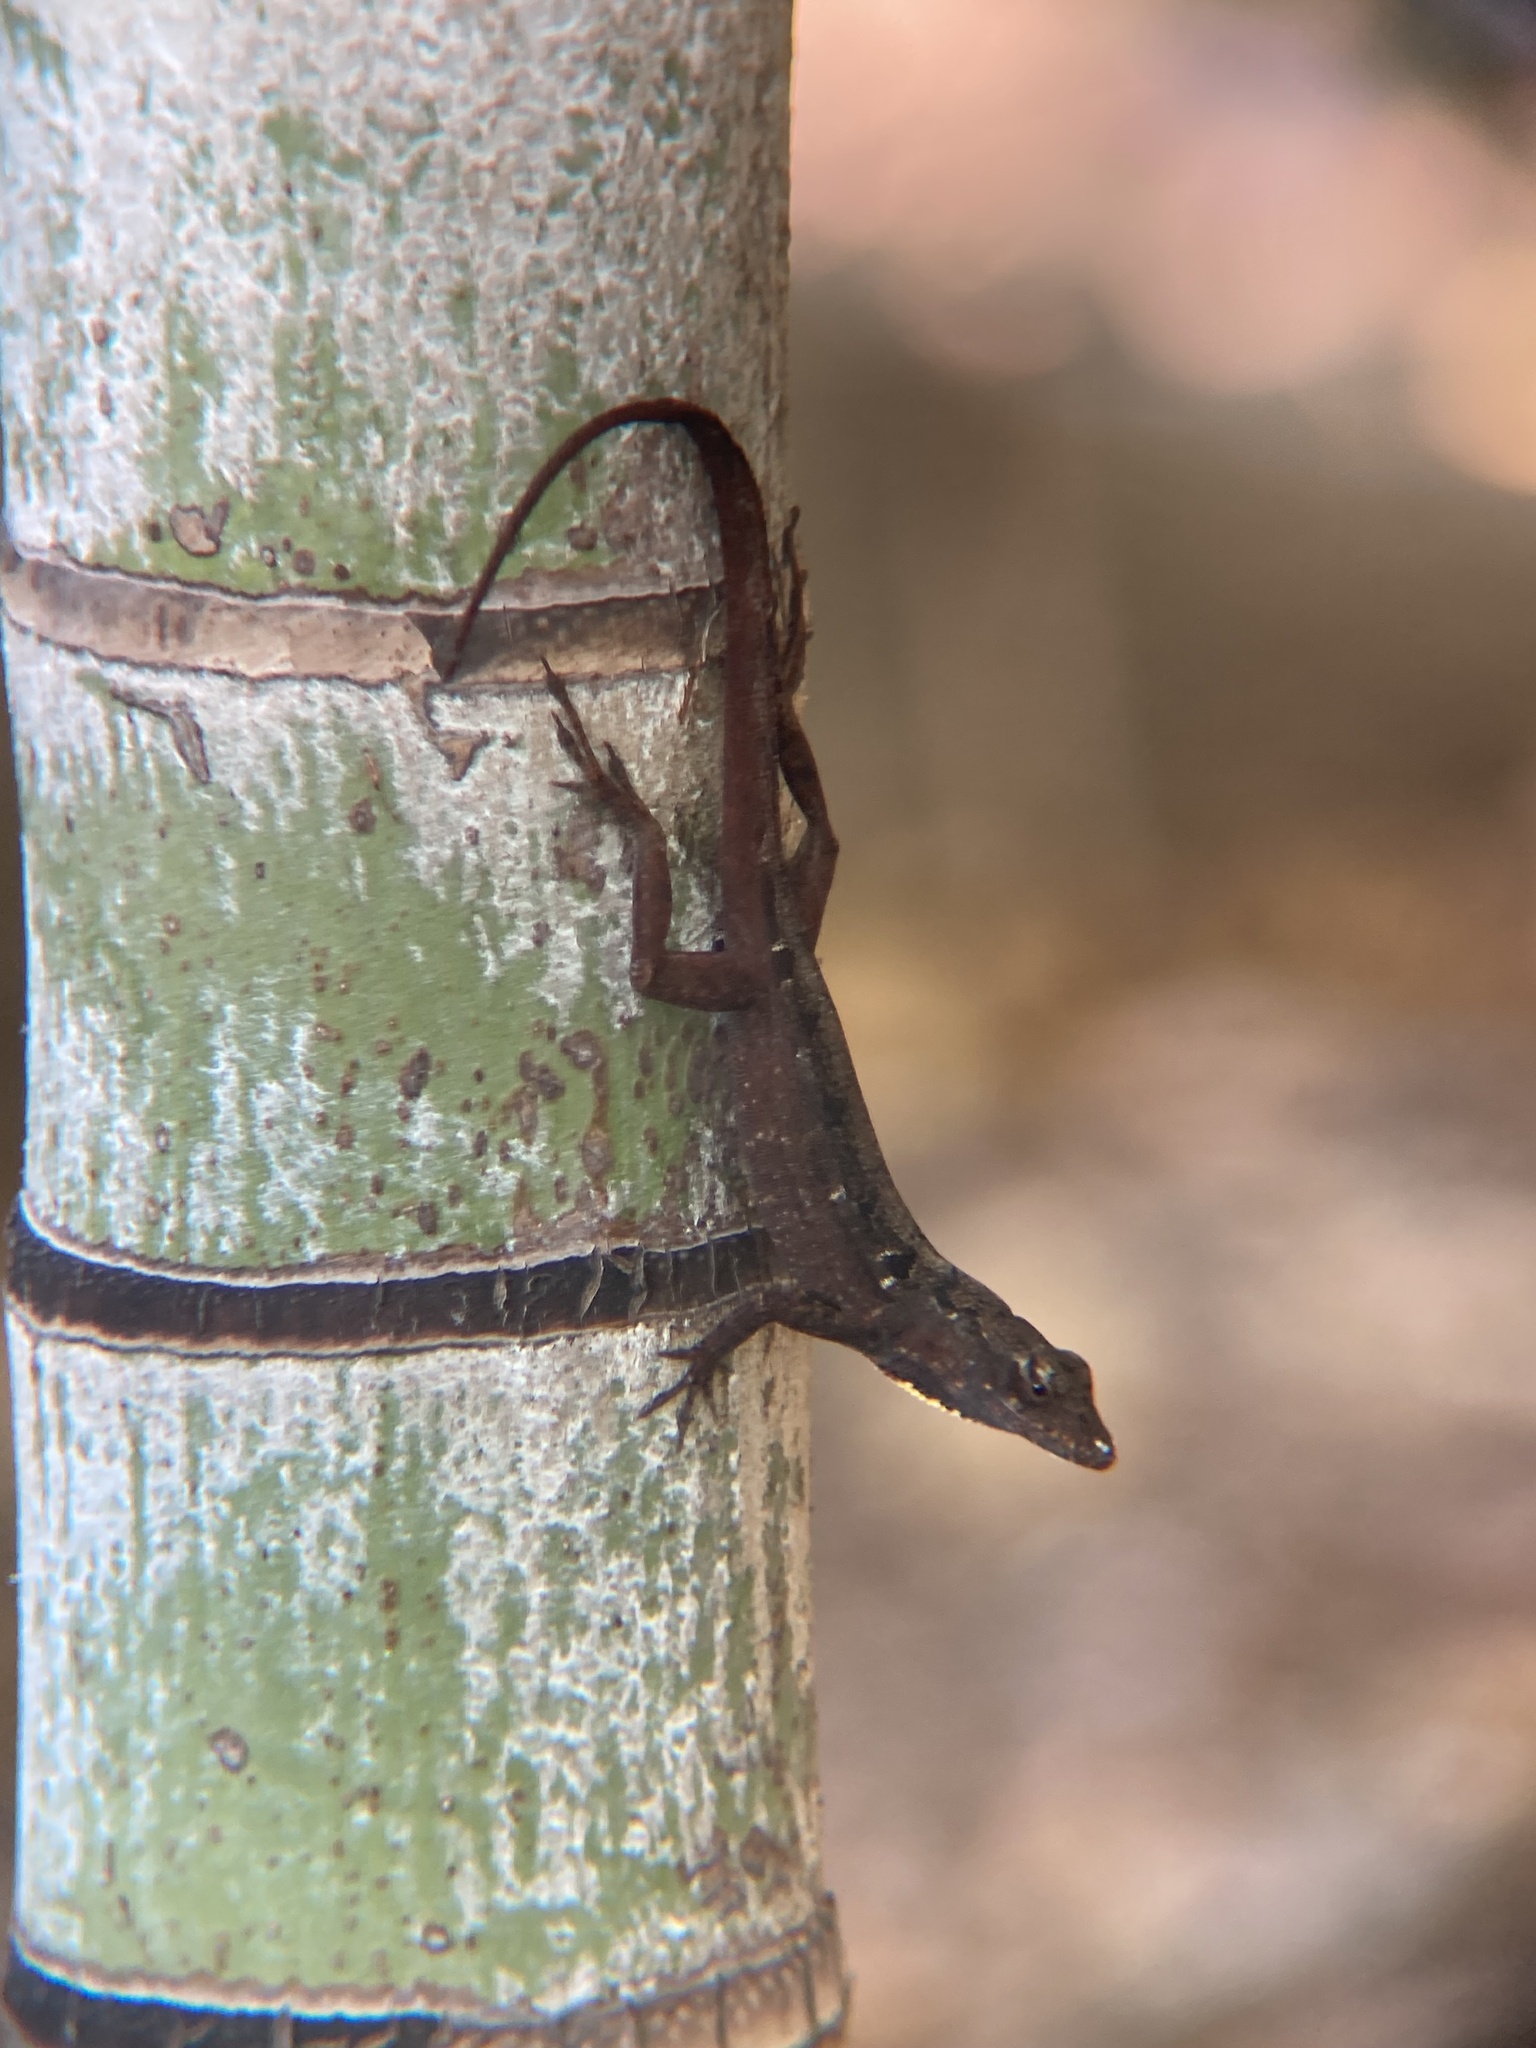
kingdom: Animalia
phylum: Chordata
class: Squamata
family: Dactyloidae
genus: Anolis
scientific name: Anolis sagrei
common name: Brown anole
